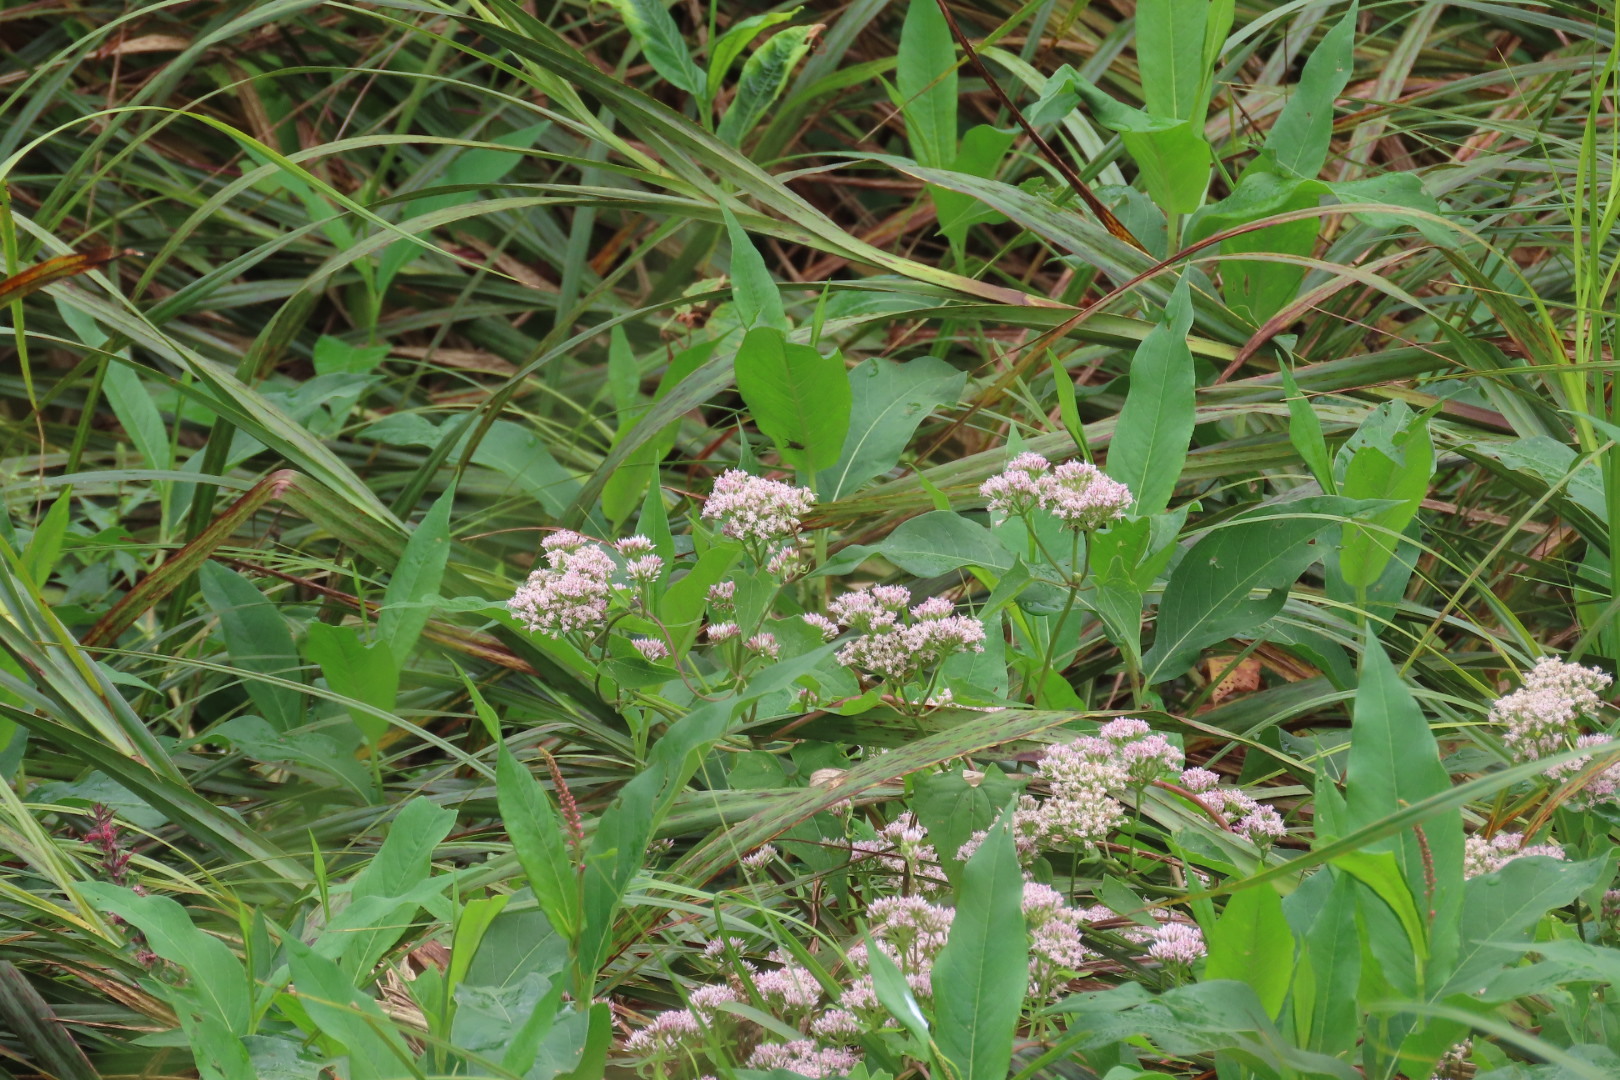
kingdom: Plantae
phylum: Tracheophyta
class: Magnoliopsida
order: Asterales
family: Asteraceae
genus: Mikania
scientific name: Mikania scandens
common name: Climbing hempvine
